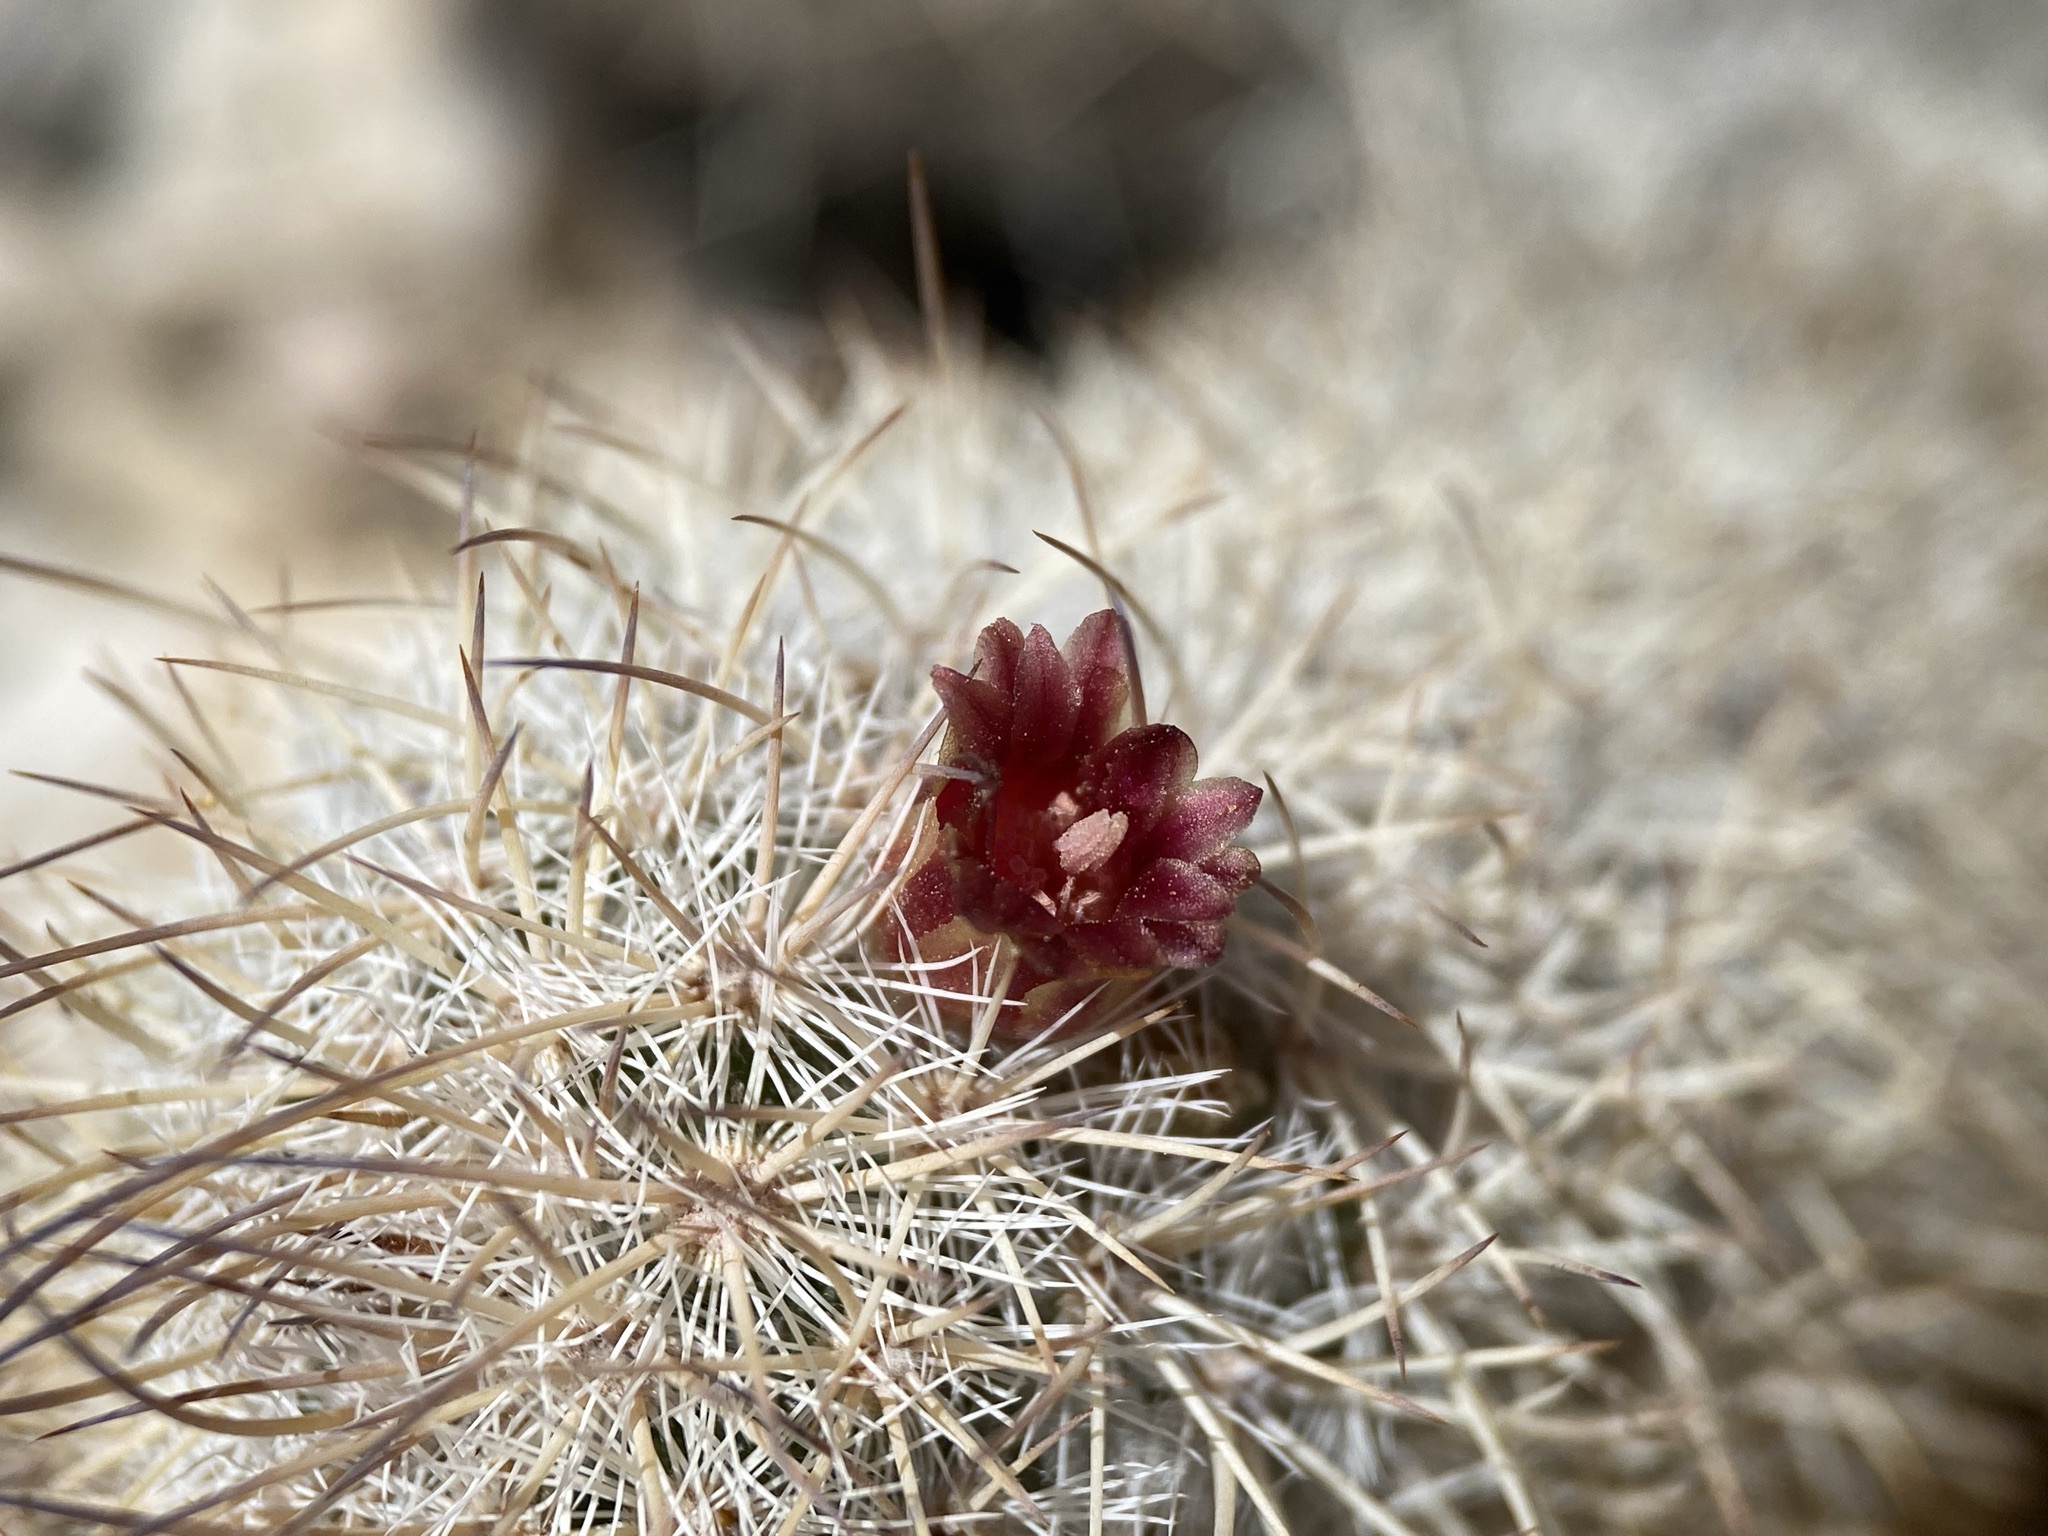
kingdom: Plantae
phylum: Tracheophyta
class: Magnoliopsida
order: Caryophyllales
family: Cactaceae
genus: Mammillaria
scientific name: Mammillaria pottsii
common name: Pott's nipple-cactus
